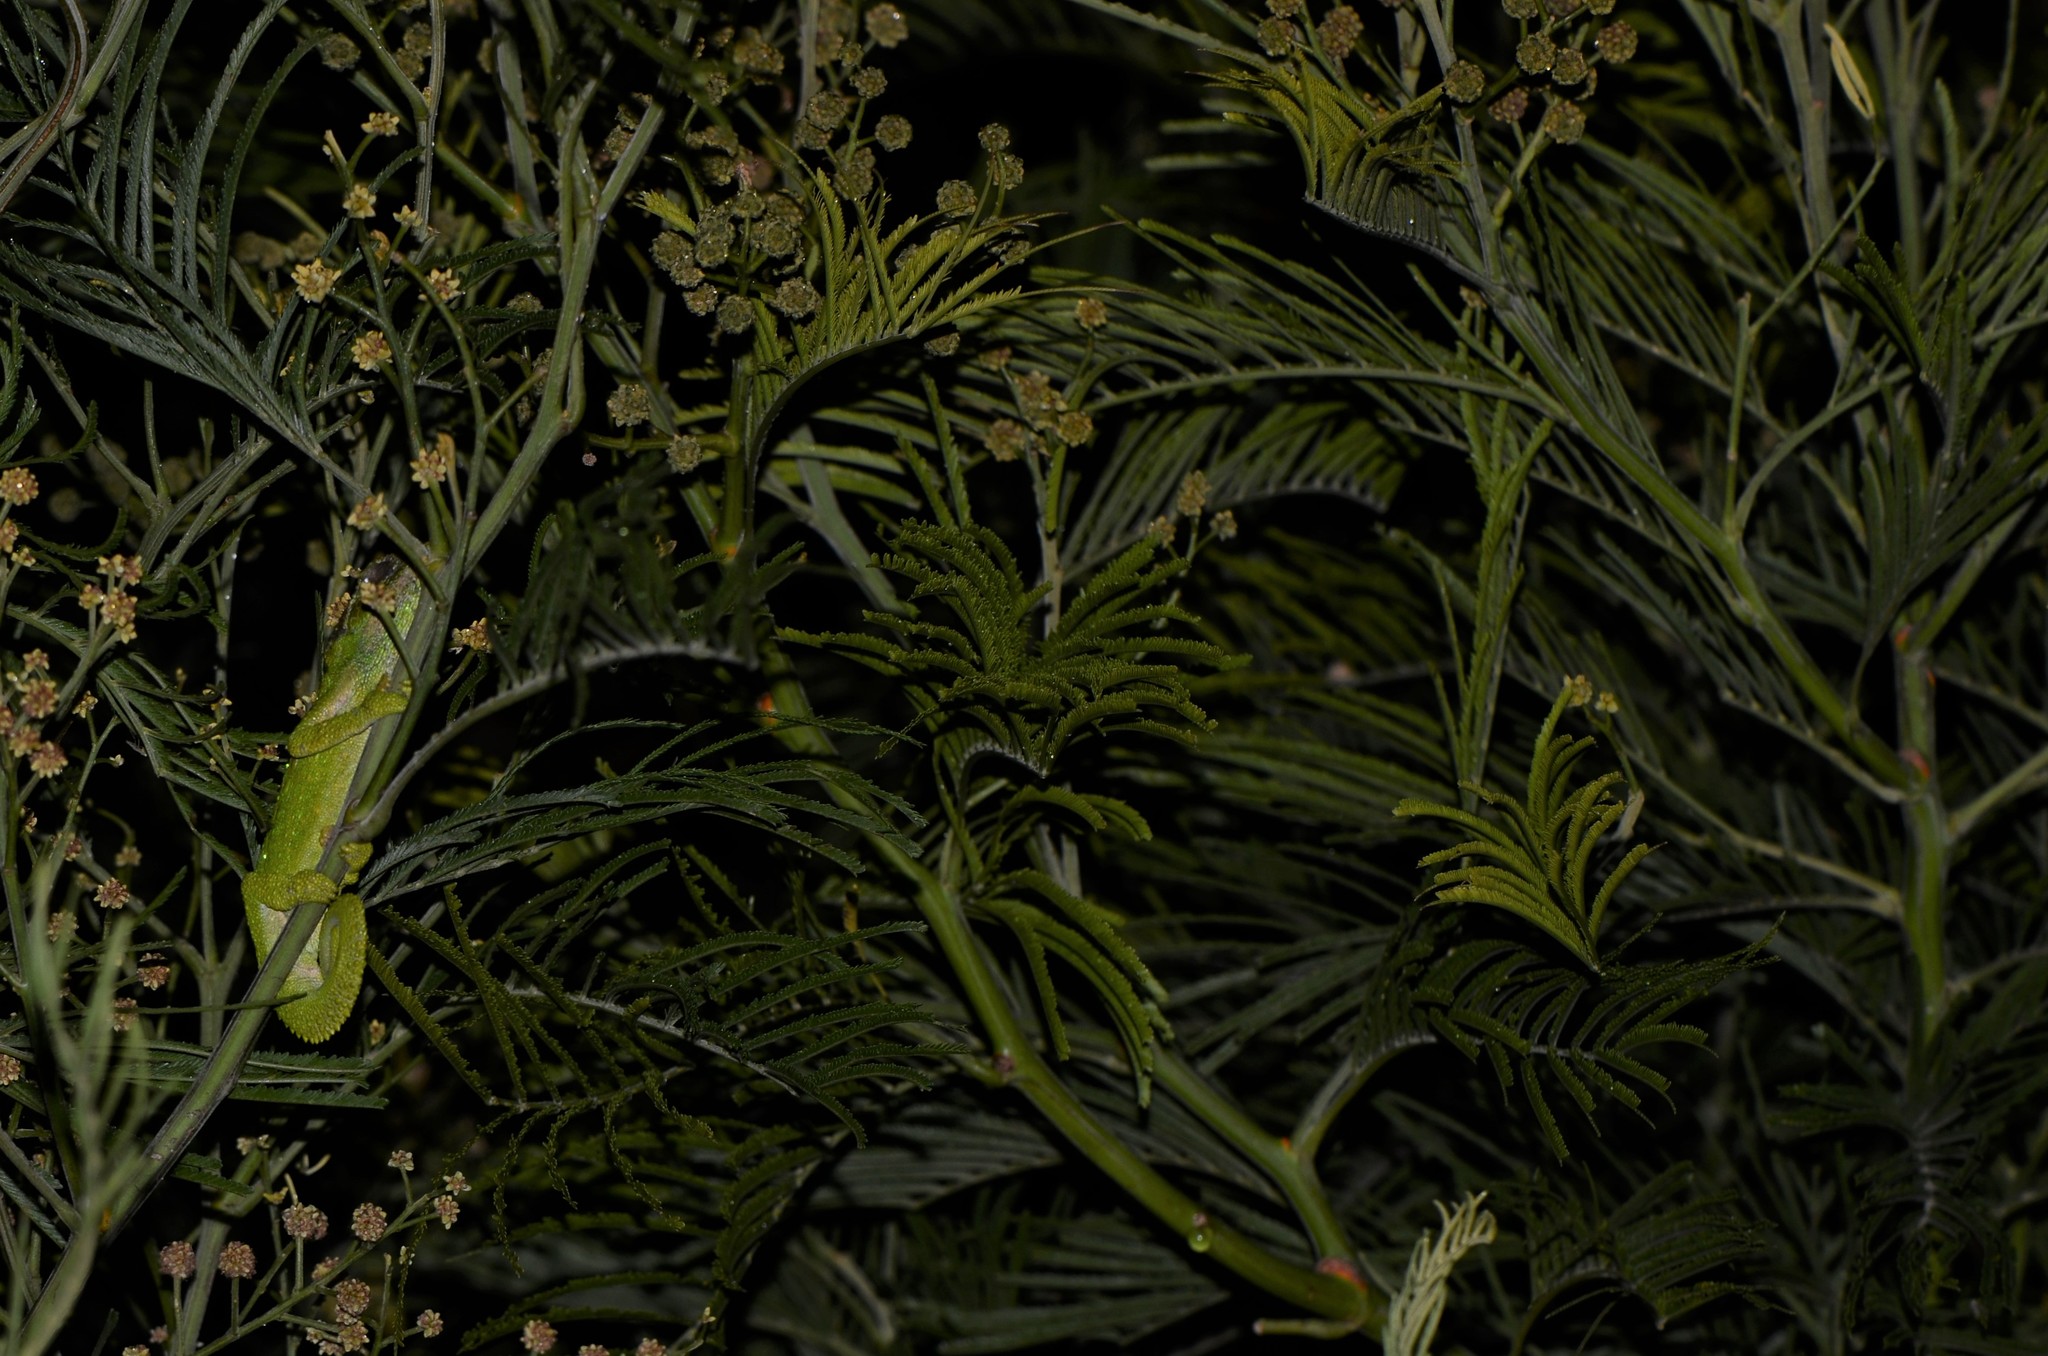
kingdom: Animalia
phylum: Chordata
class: Squamata
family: Chamaeleonidae
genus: Bradypodion
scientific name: Bradypodion pumilum
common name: Cape dwarf chameleon
